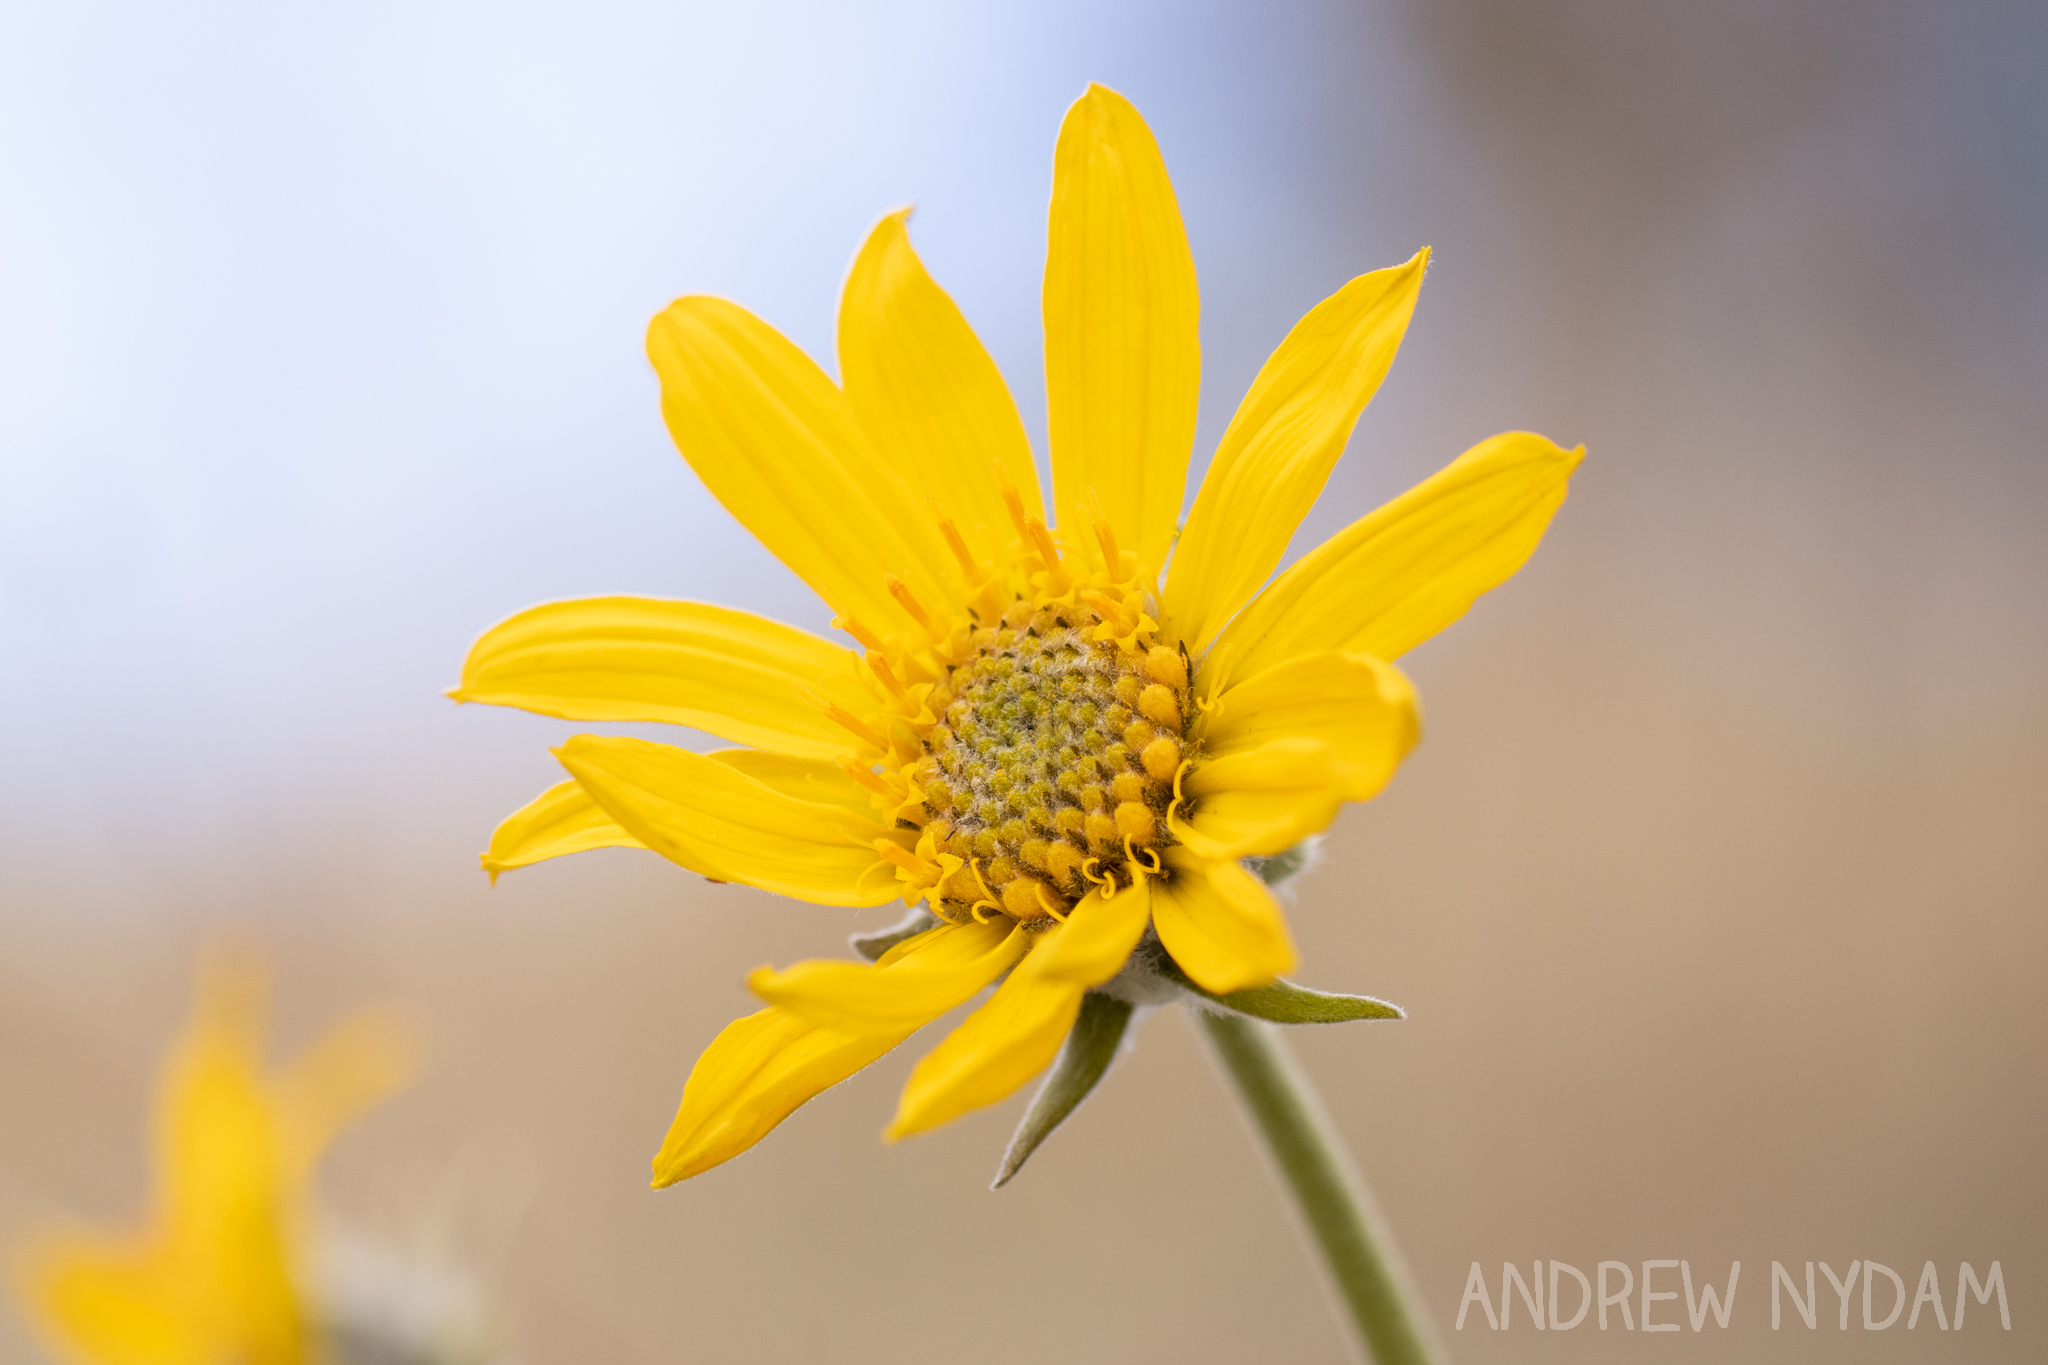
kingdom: Plantae
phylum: Tracheophyta
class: Magnoliopsida
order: Asterales
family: Asteraceae
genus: Wyethia
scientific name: Wyethia sagittata
